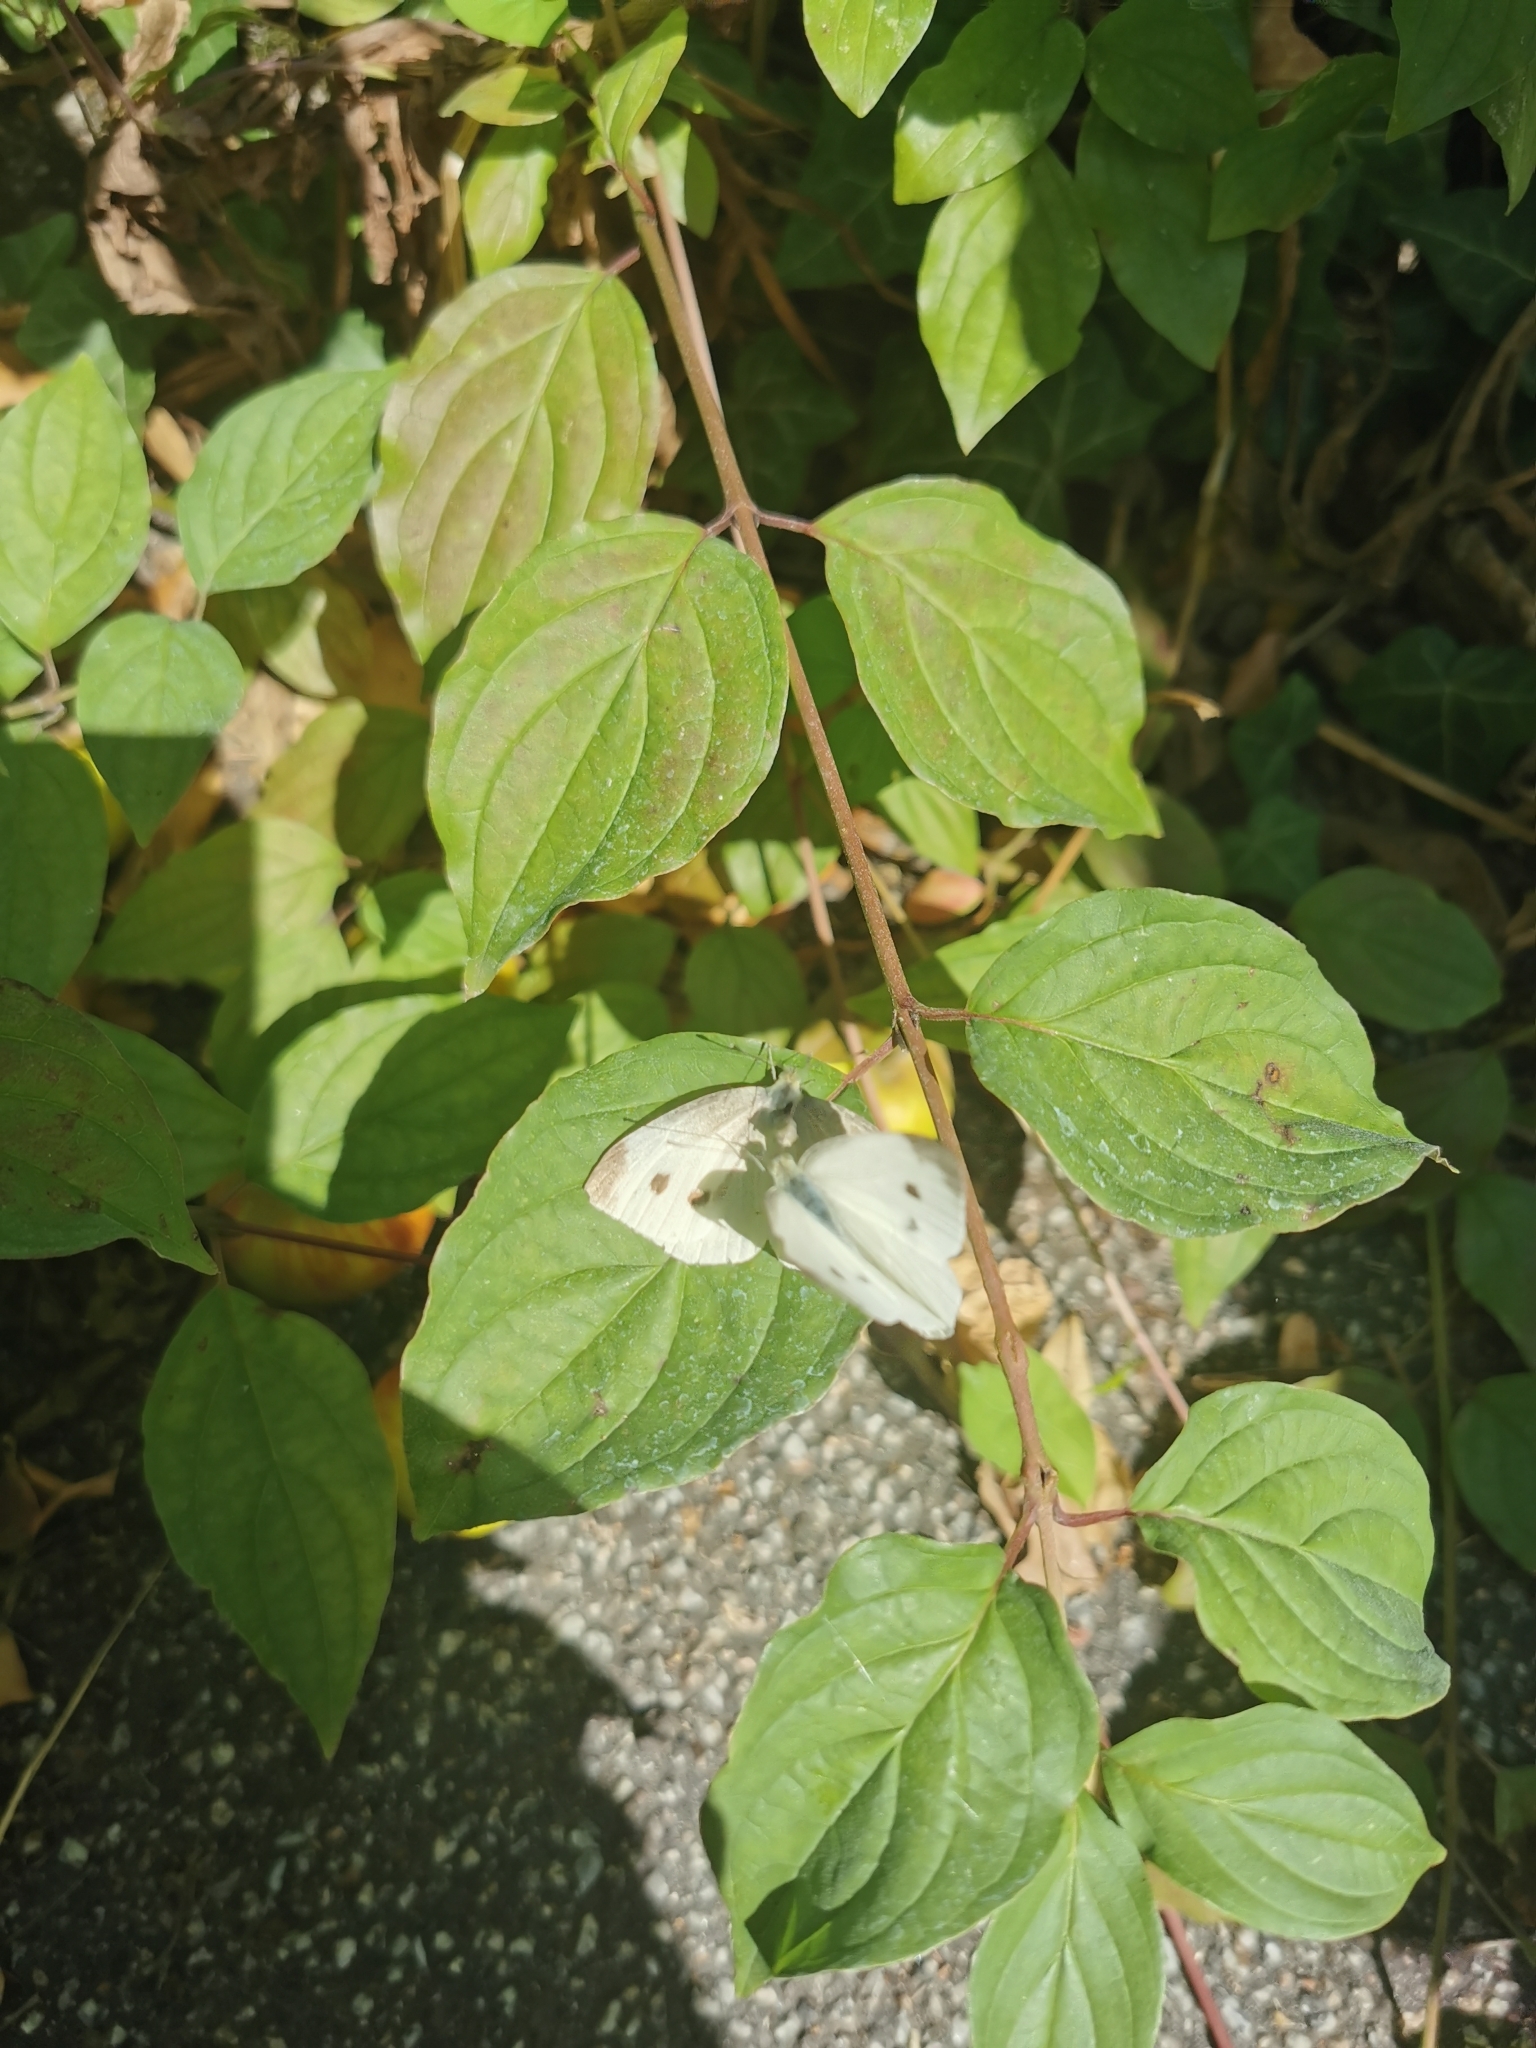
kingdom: Animalia
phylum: Arthropoda
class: Insecta
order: Lepidoptera
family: Pieridae
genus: Pieris
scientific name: Pieris rapae
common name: Small white
